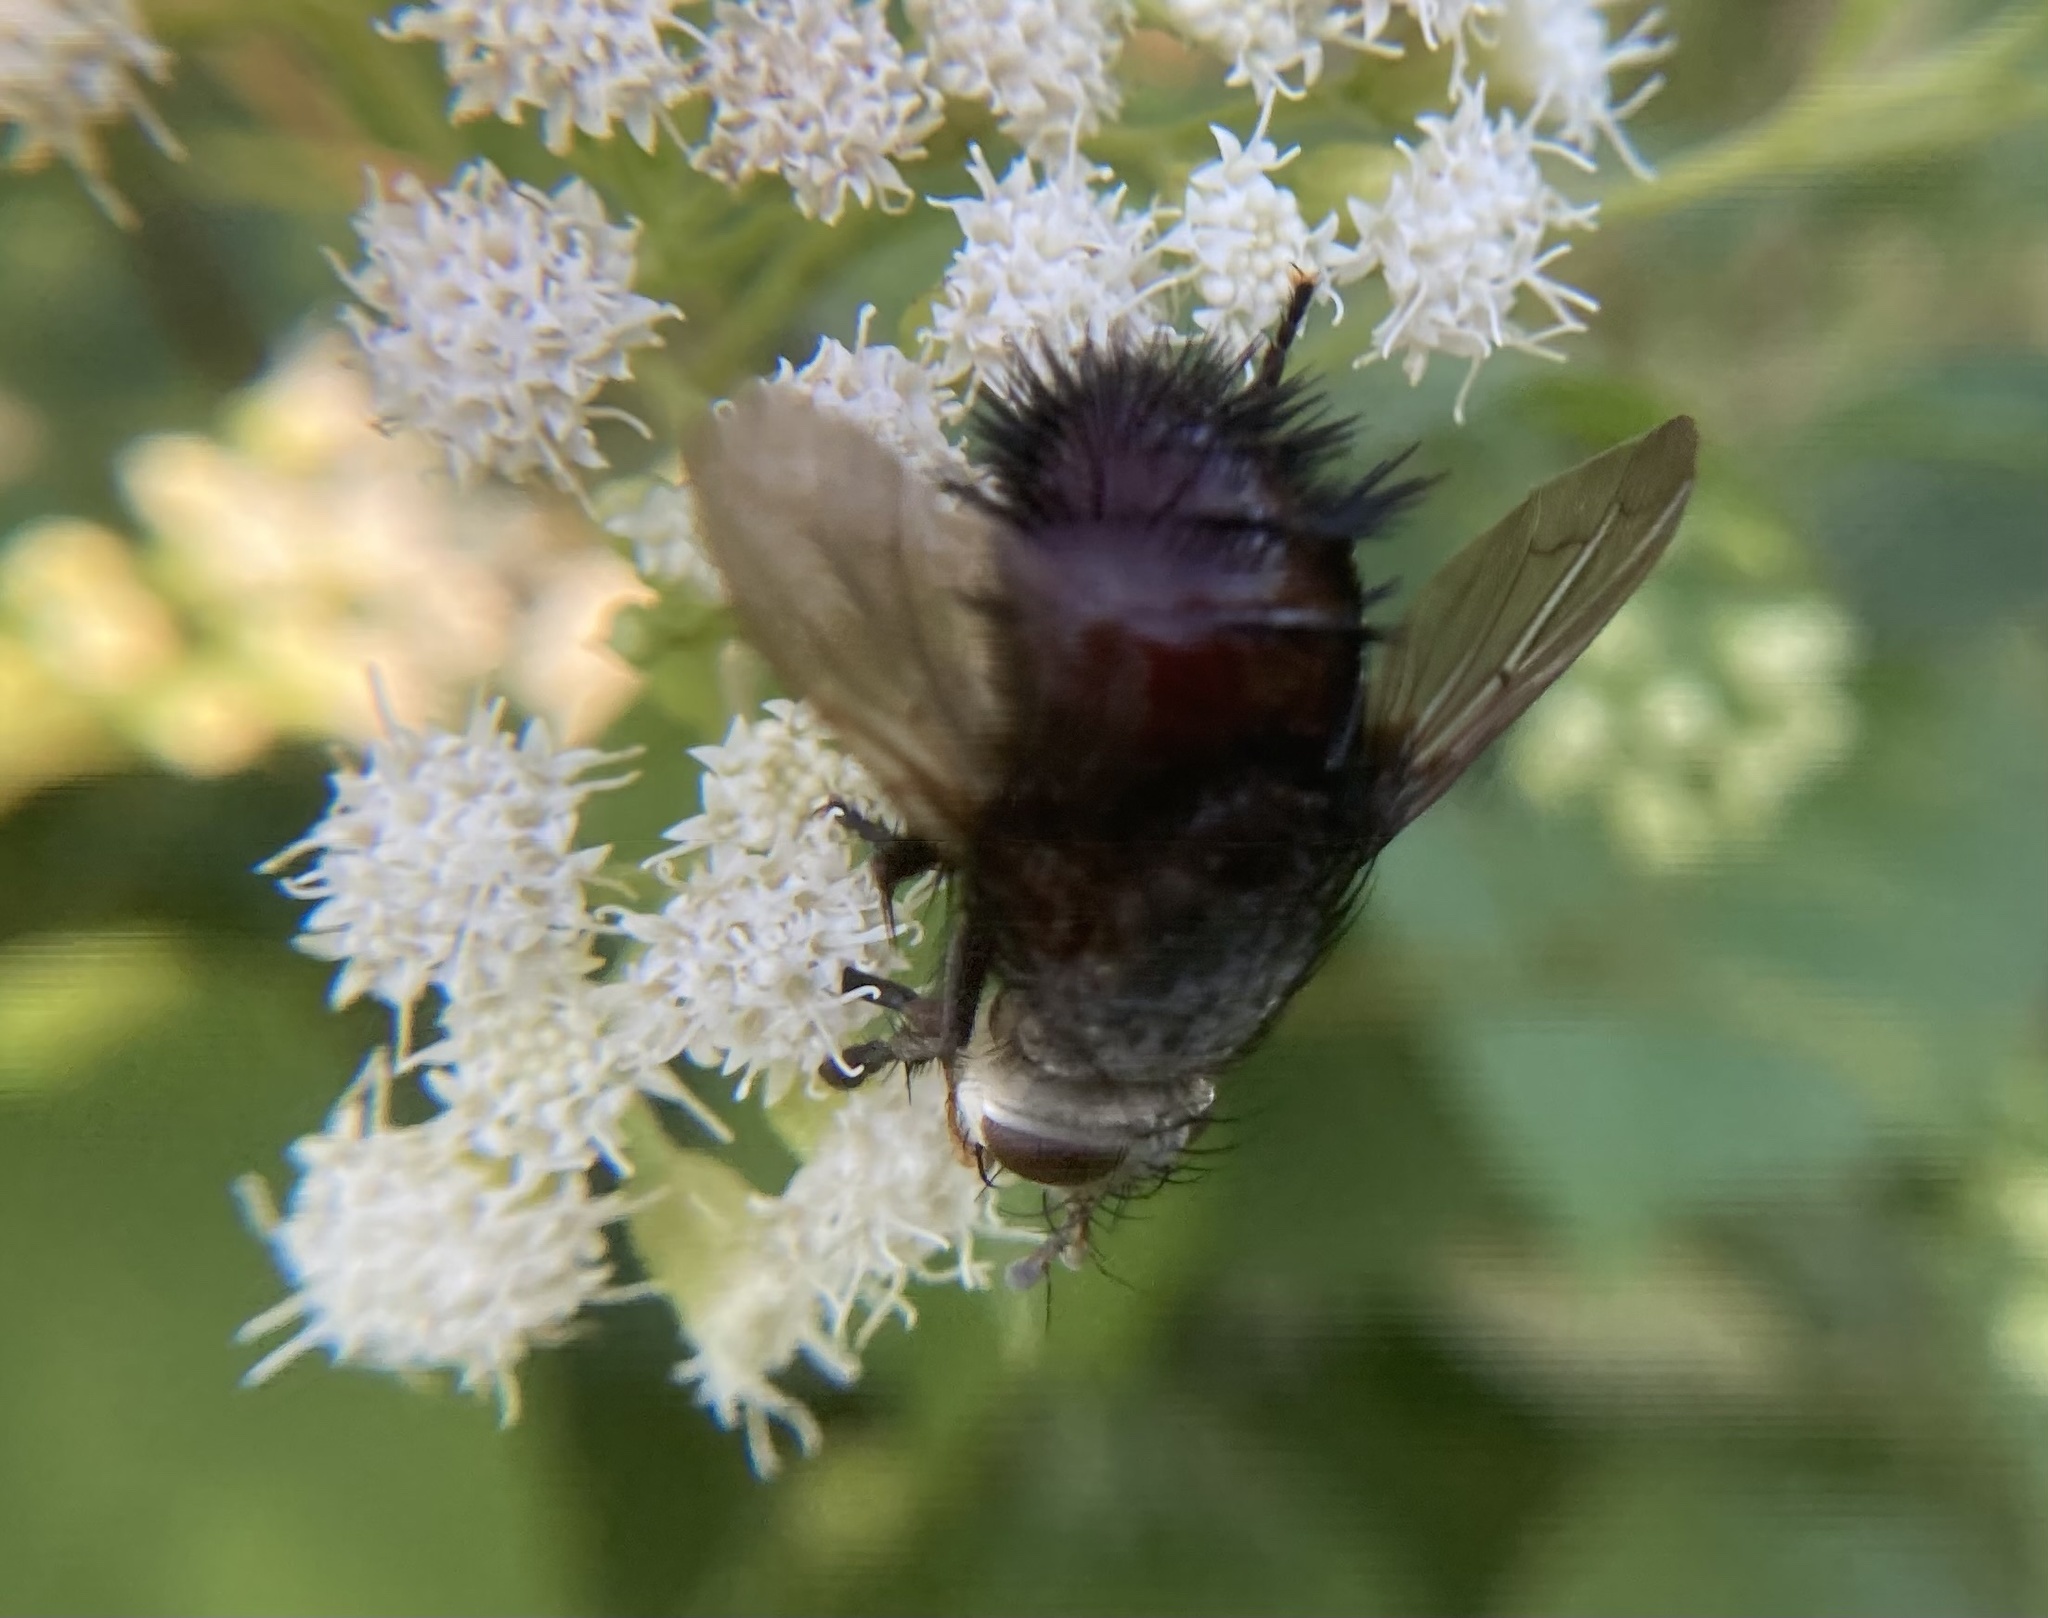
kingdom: Animalia
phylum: Arthropoda
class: Insecta
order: Diptera
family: Tachinidae
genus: Juriniopsis
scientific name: Juriniopsis adusta
